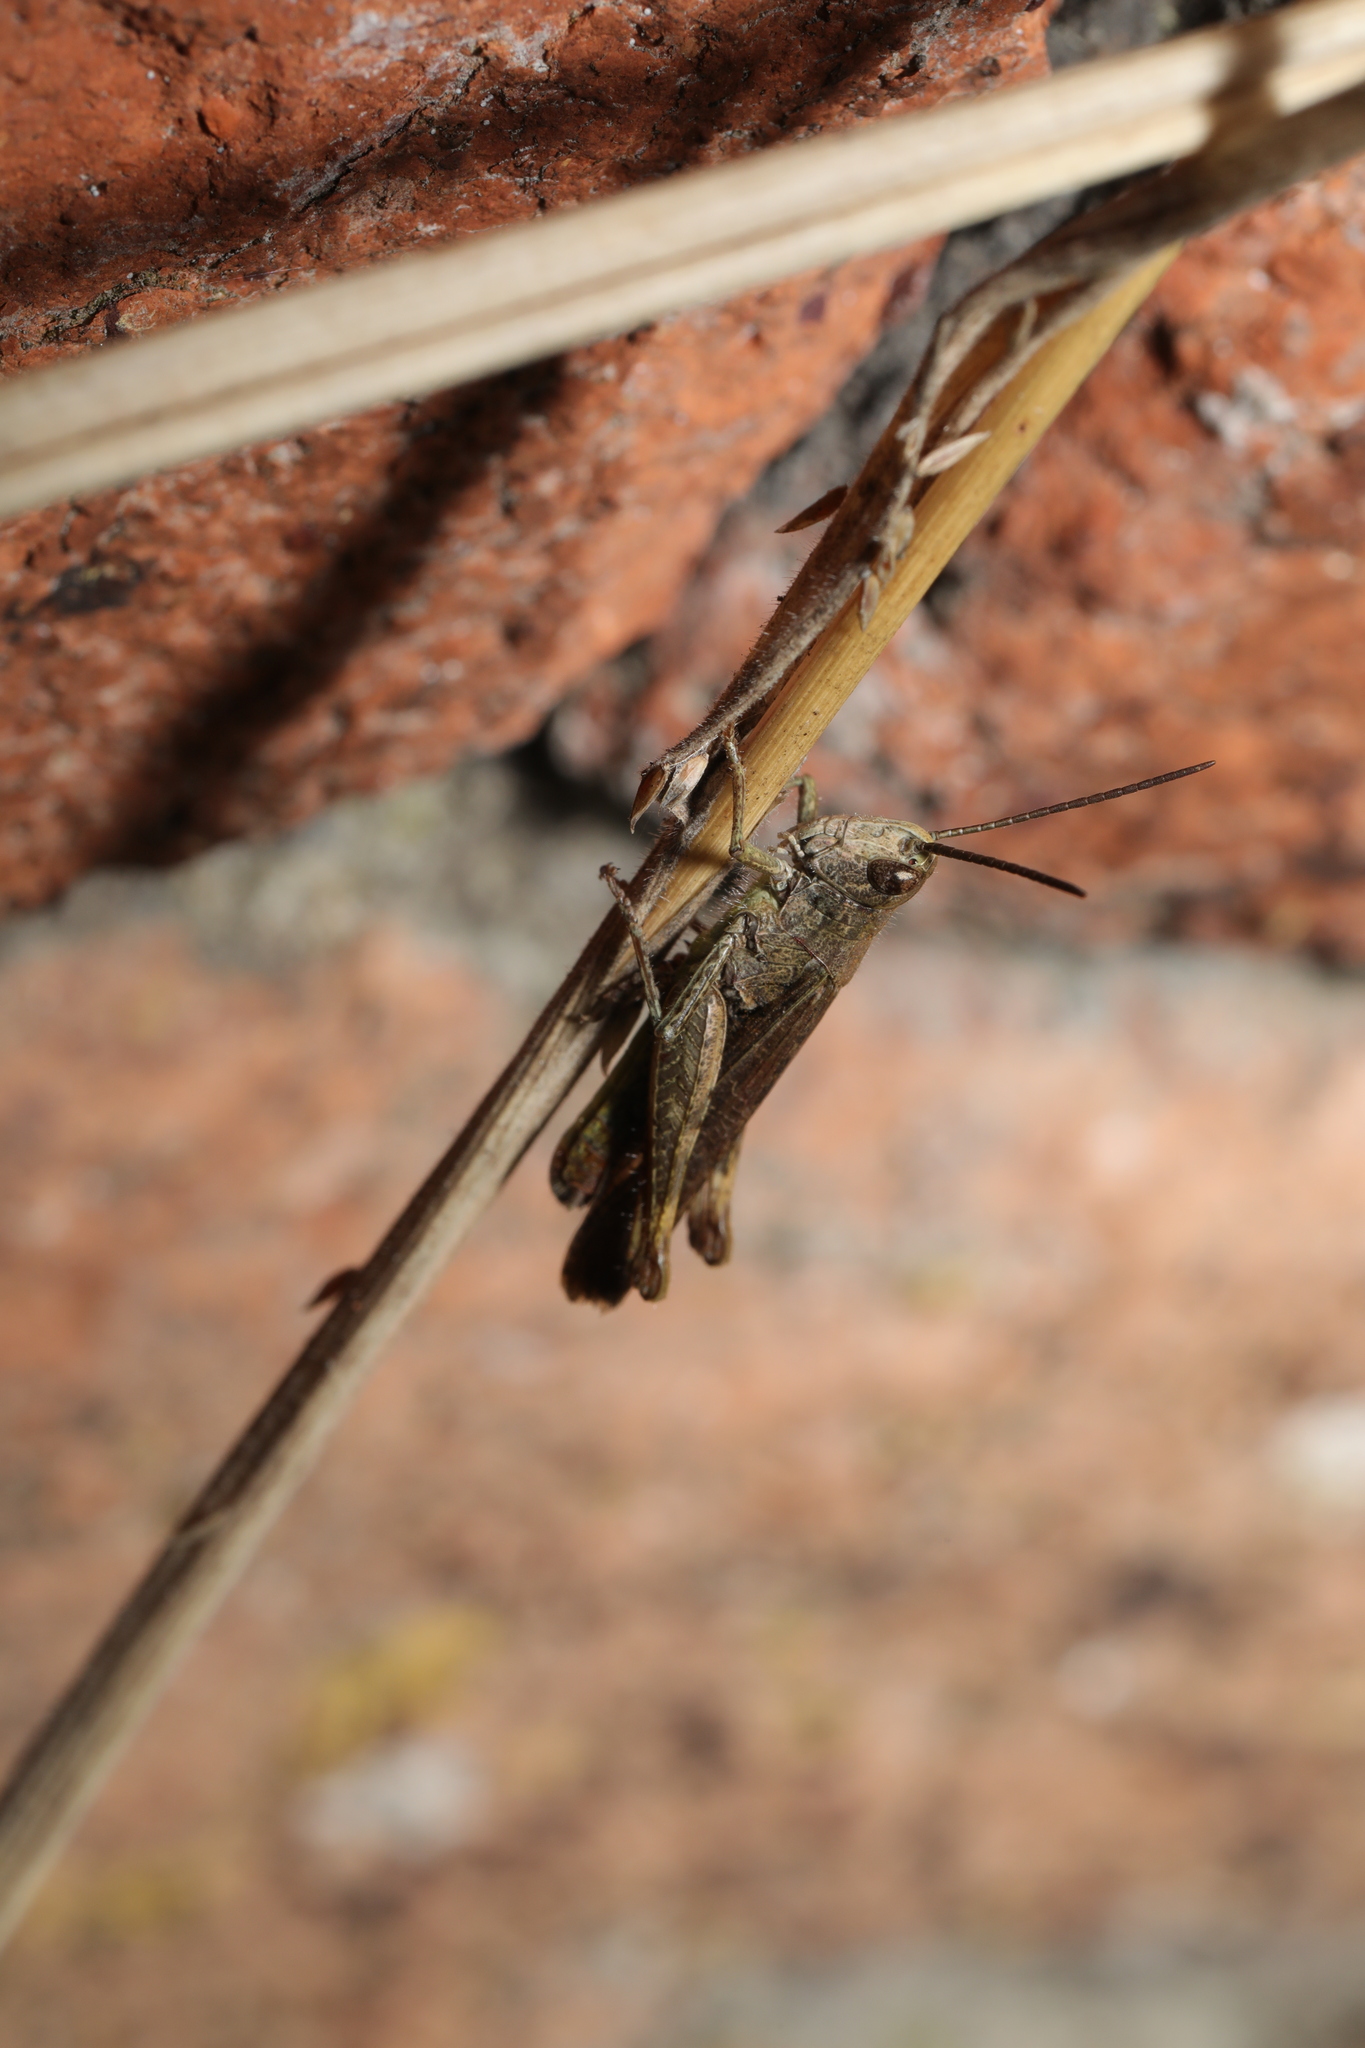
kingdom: Animalia
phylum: Arthropoda
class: Insecta
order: Orthoptera
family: Acrididae
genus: Chorthippus
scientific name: Chorthippus brunneus
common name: Field grasshopper
